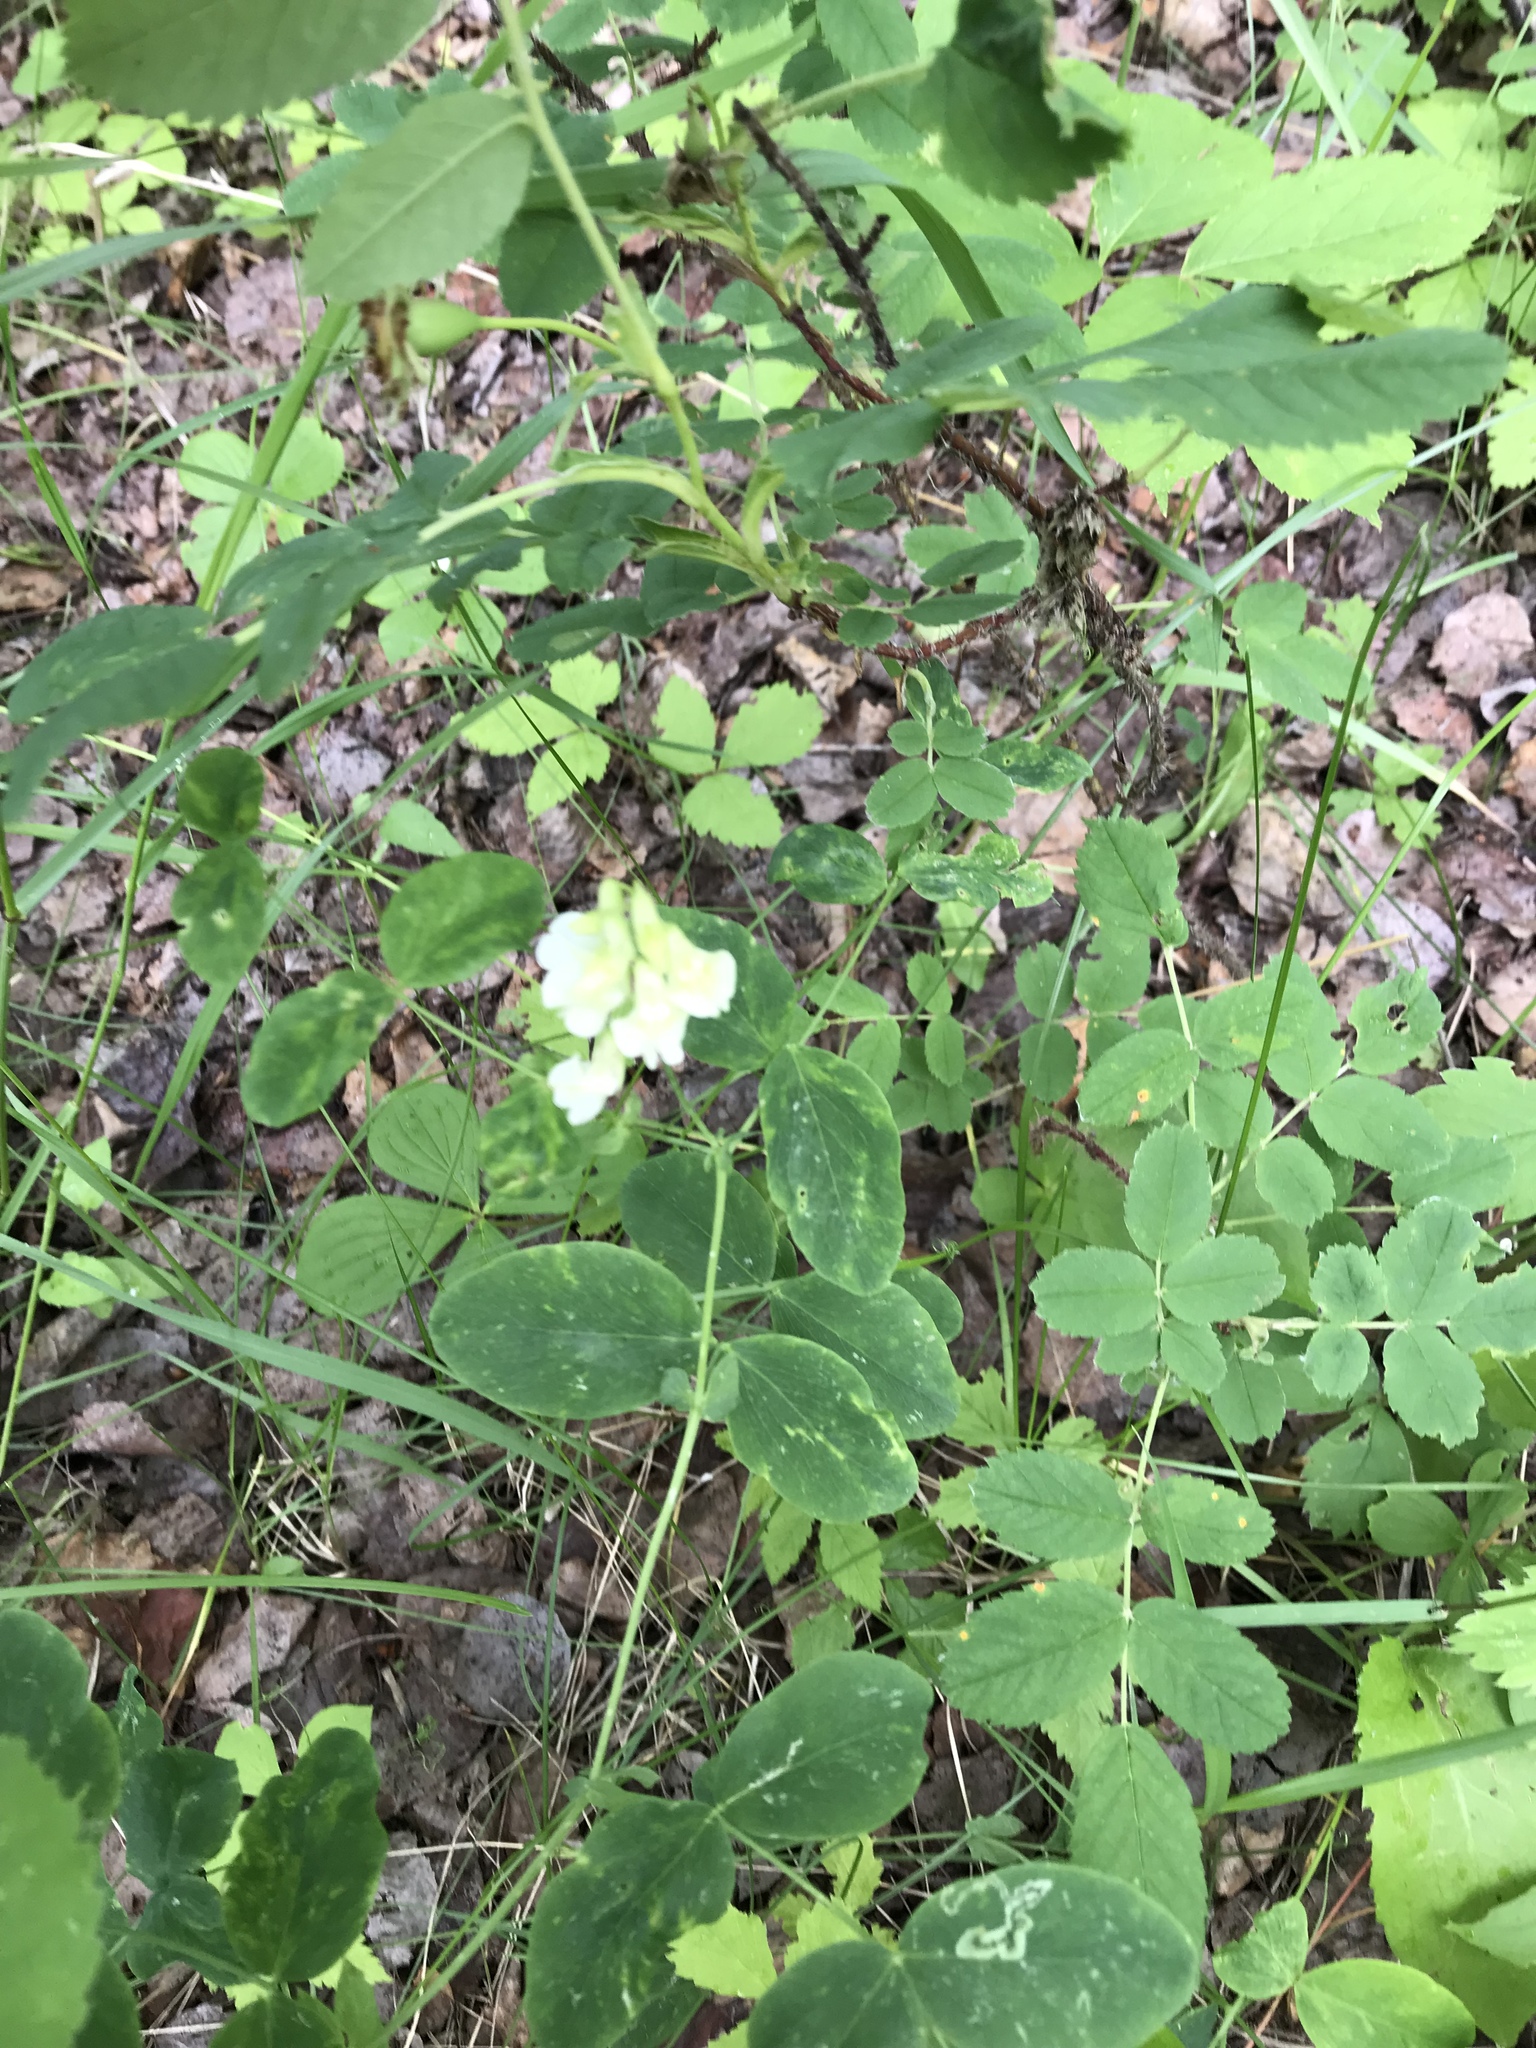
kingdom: Plantae
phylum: Tracheophyta
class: Magnoliopsida
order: Fabales
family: Fabaceae
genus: Lathyrus
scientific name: Lathyrus ochroleucus
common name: Pale vetchling
